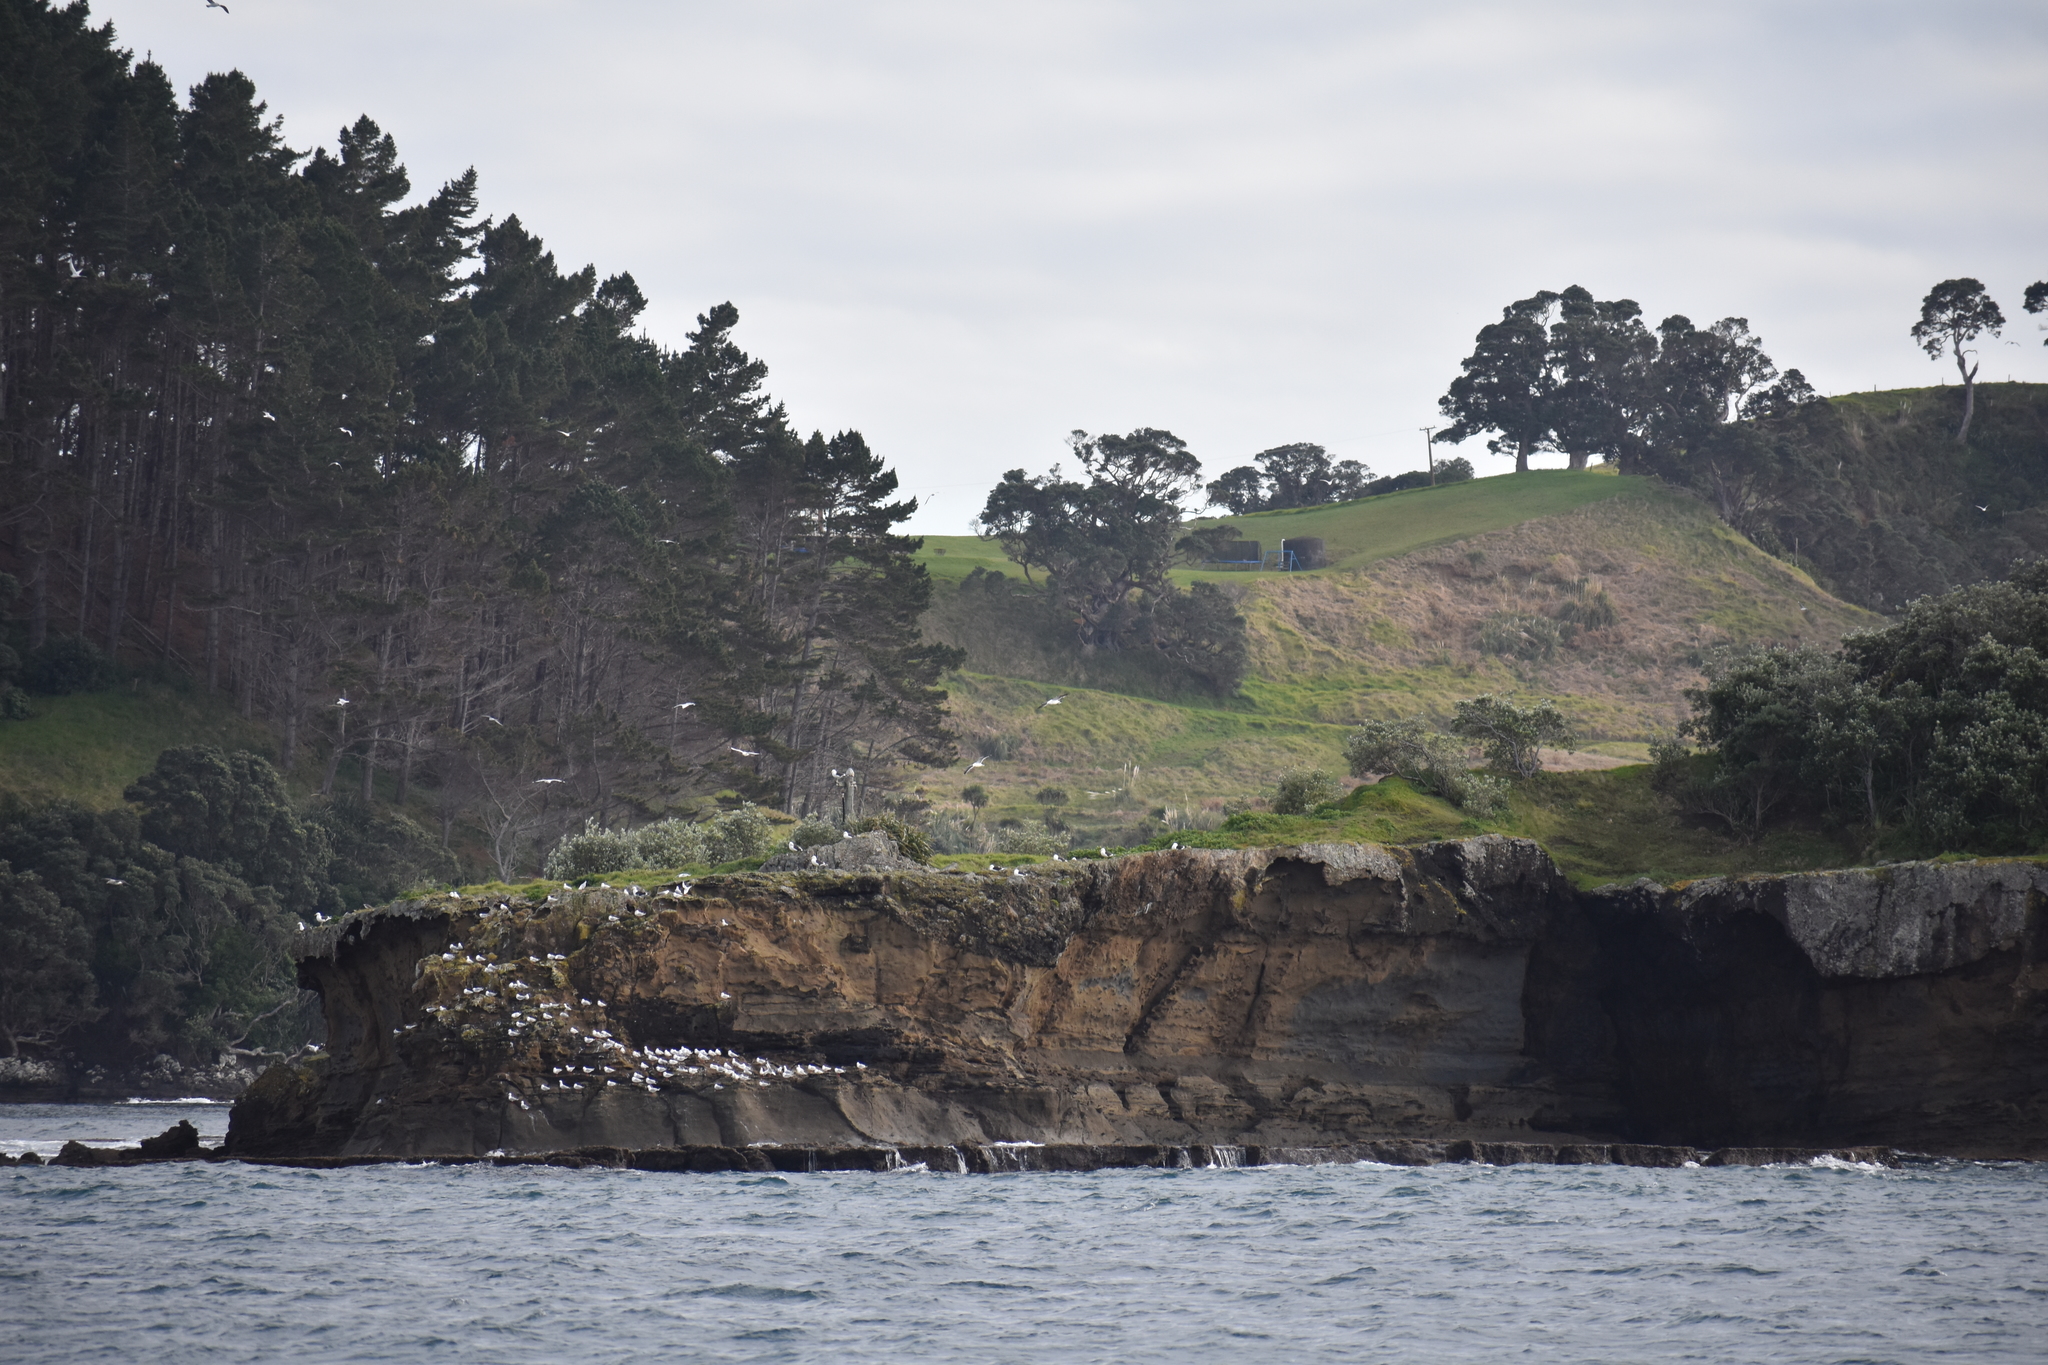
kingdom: Animalia
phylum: Chordata
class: Aves
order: Charadriiformes
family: Laridae
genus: Chroicocephalus
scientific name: Chroicocephalus novaehollandiae
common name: Silver gull
